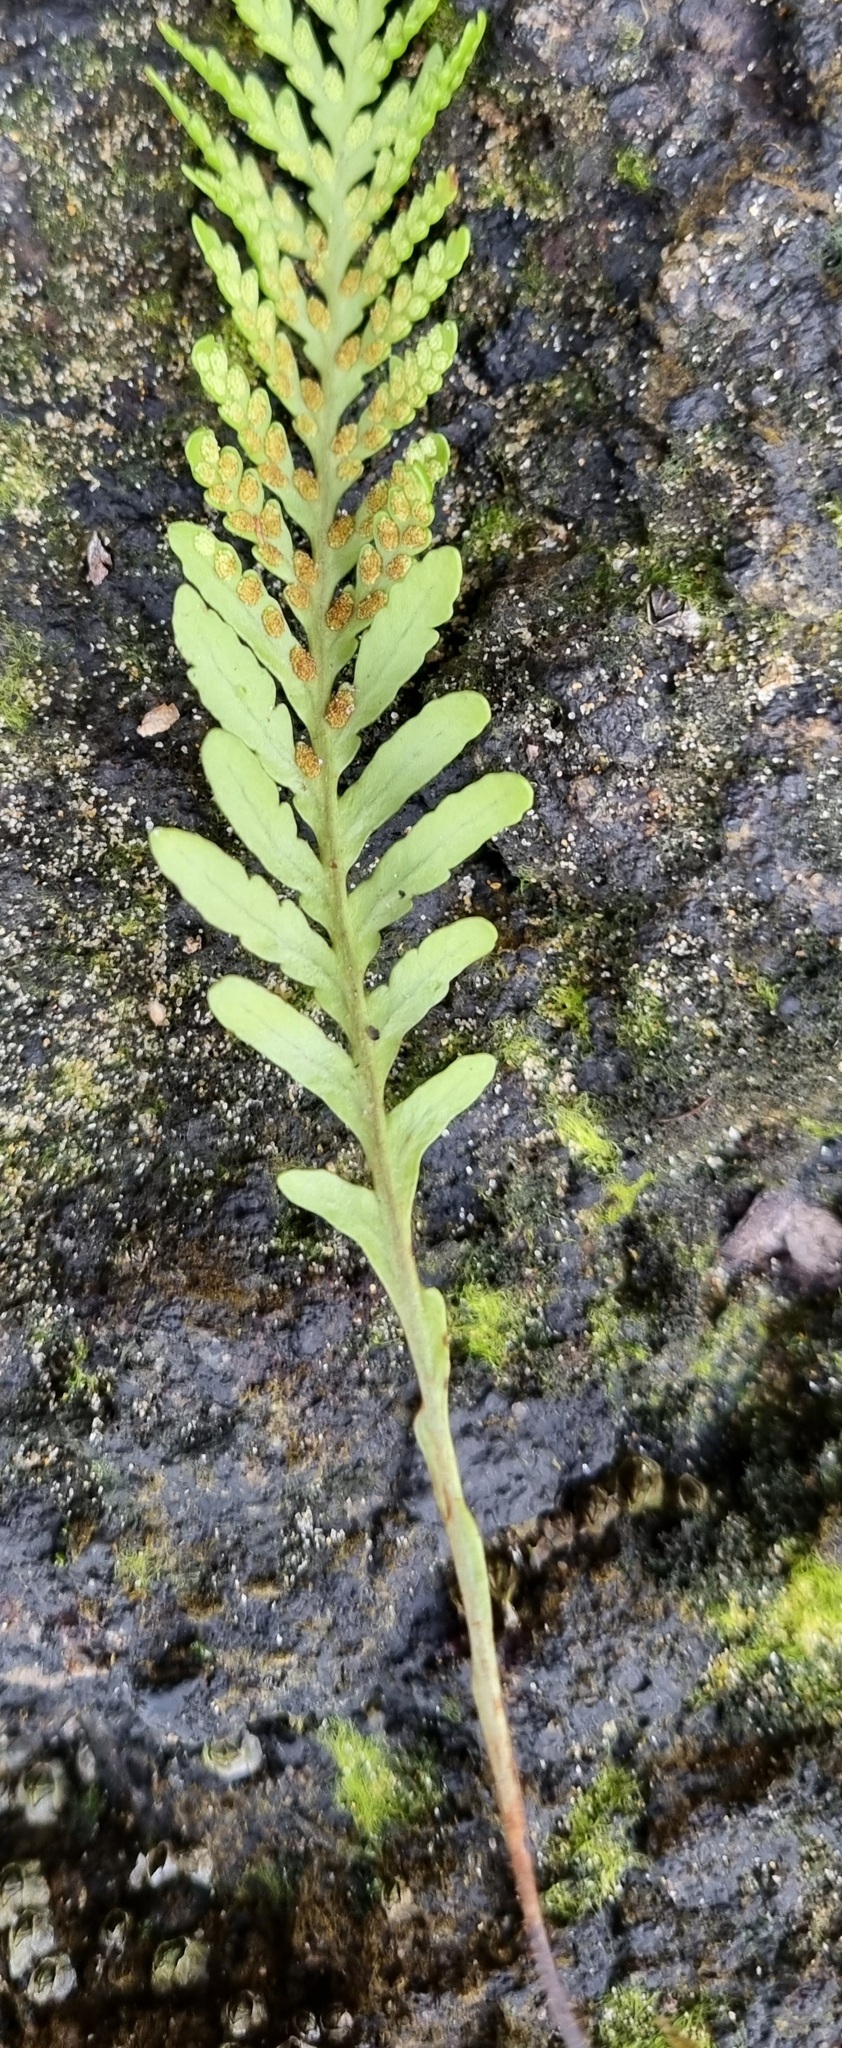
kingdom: Plantae
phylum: Tracheophyta
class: Polypodiopsida
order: Polypodiales
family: Polypodiaceae
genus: Notogrammitis
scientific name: Notogrammitis heterophylla
